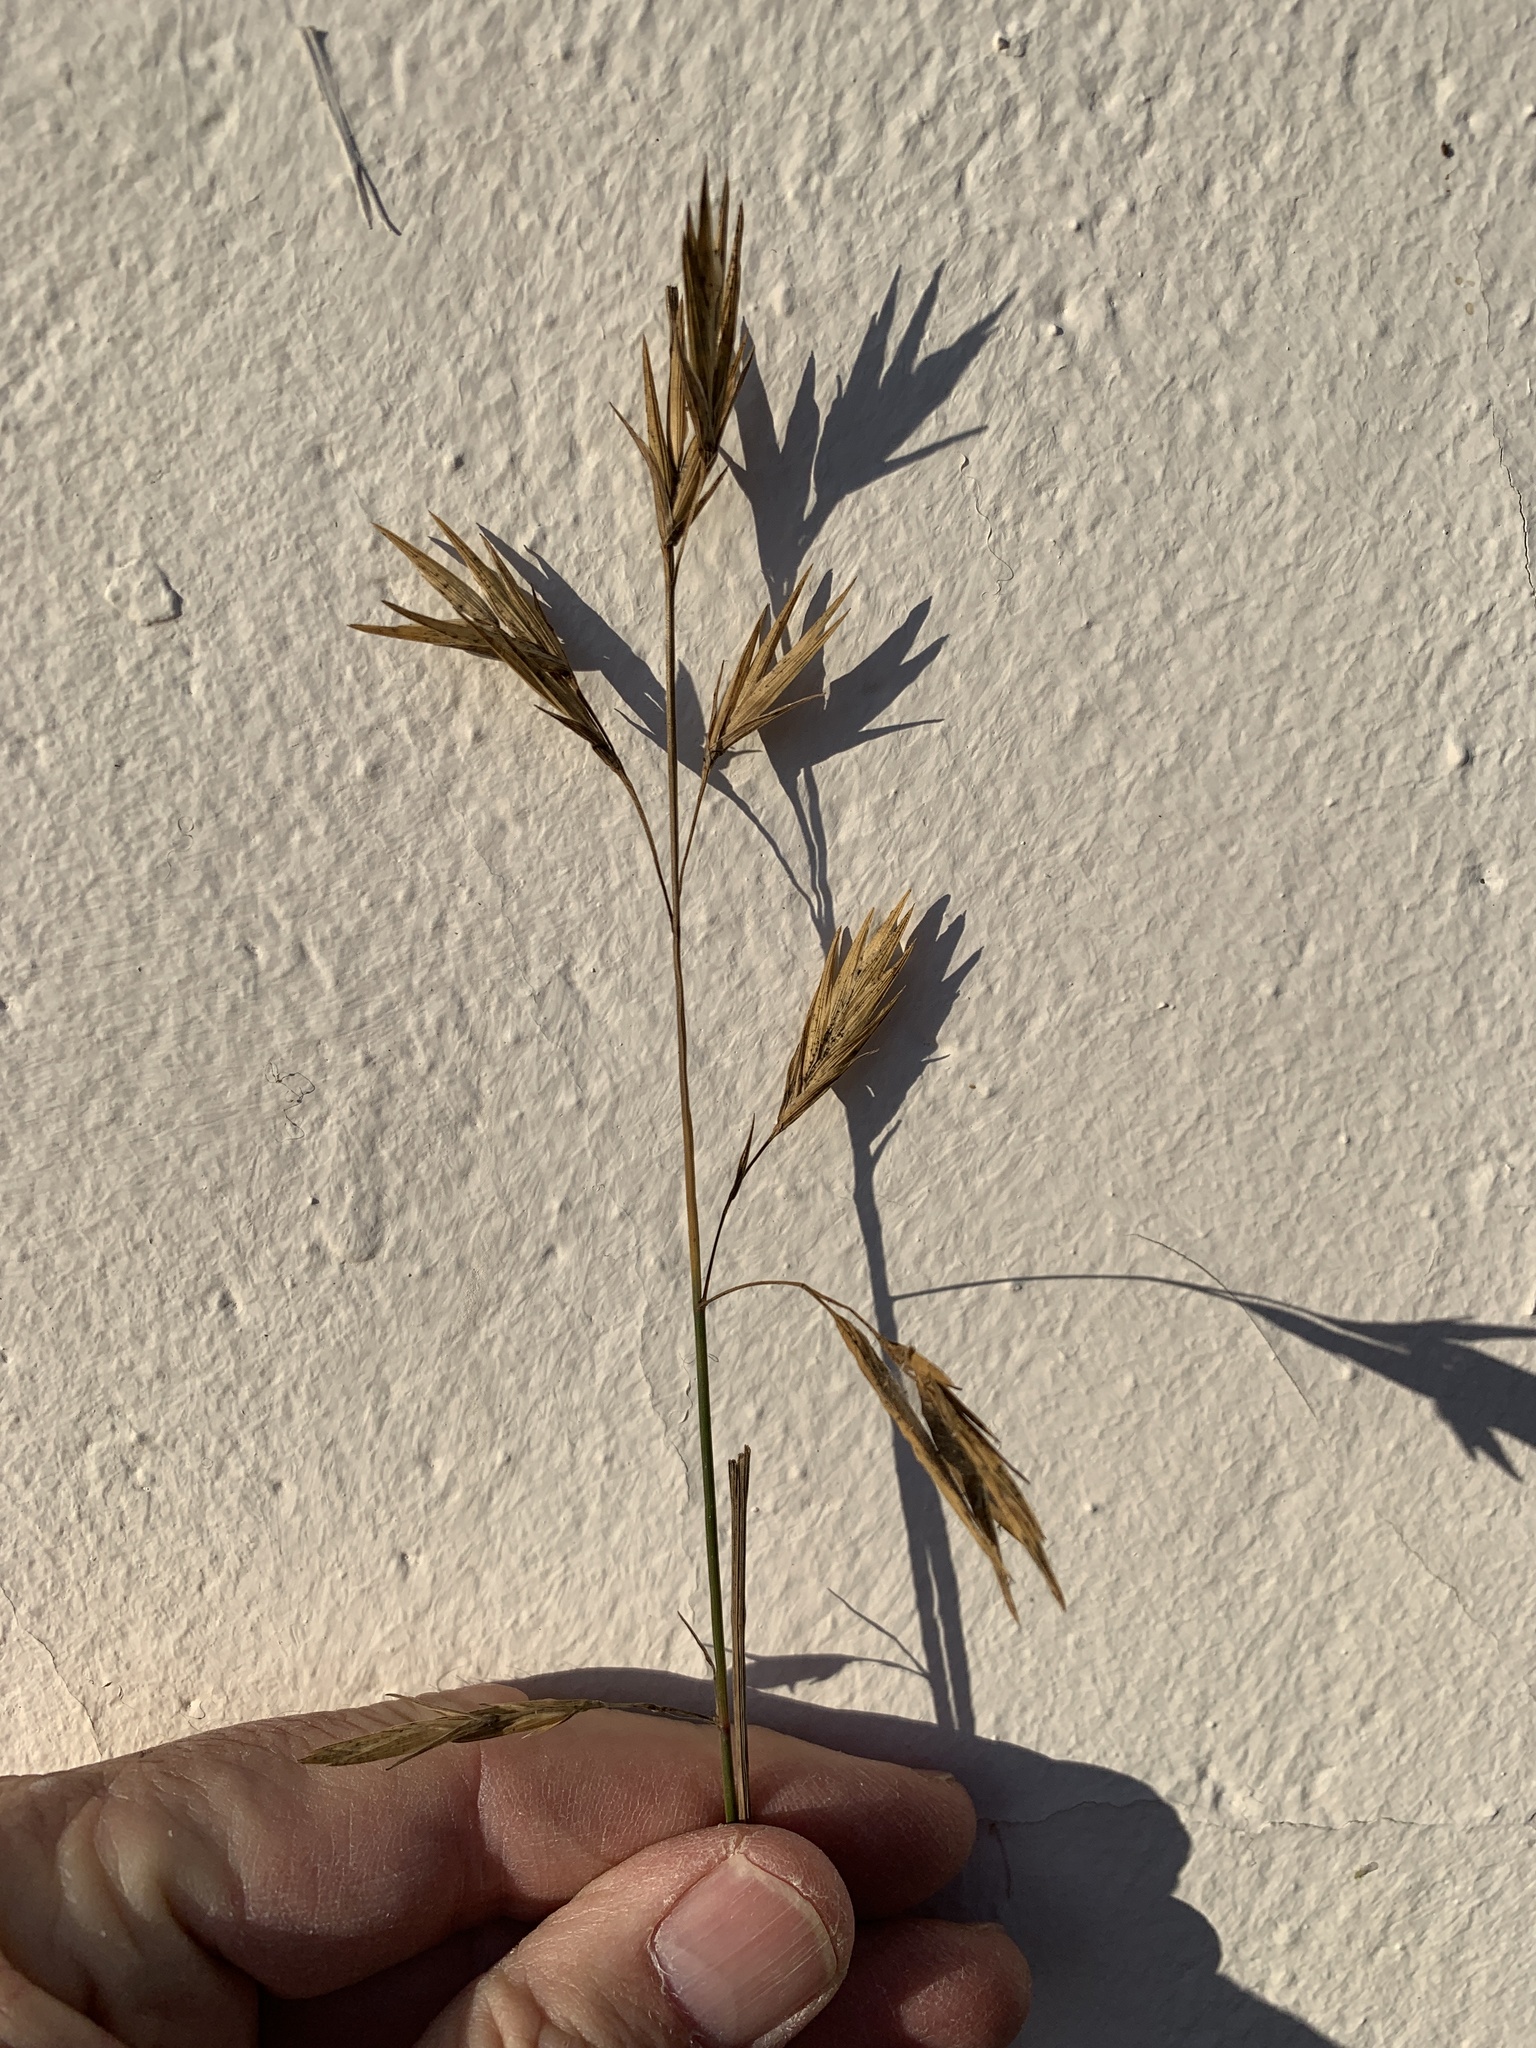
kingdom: Plantae
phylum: Tracheophyta
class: Liliopsida
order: Poales
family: Poaceae
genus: Bromus
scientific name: Bromus catharticus
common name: Rescuegrass
